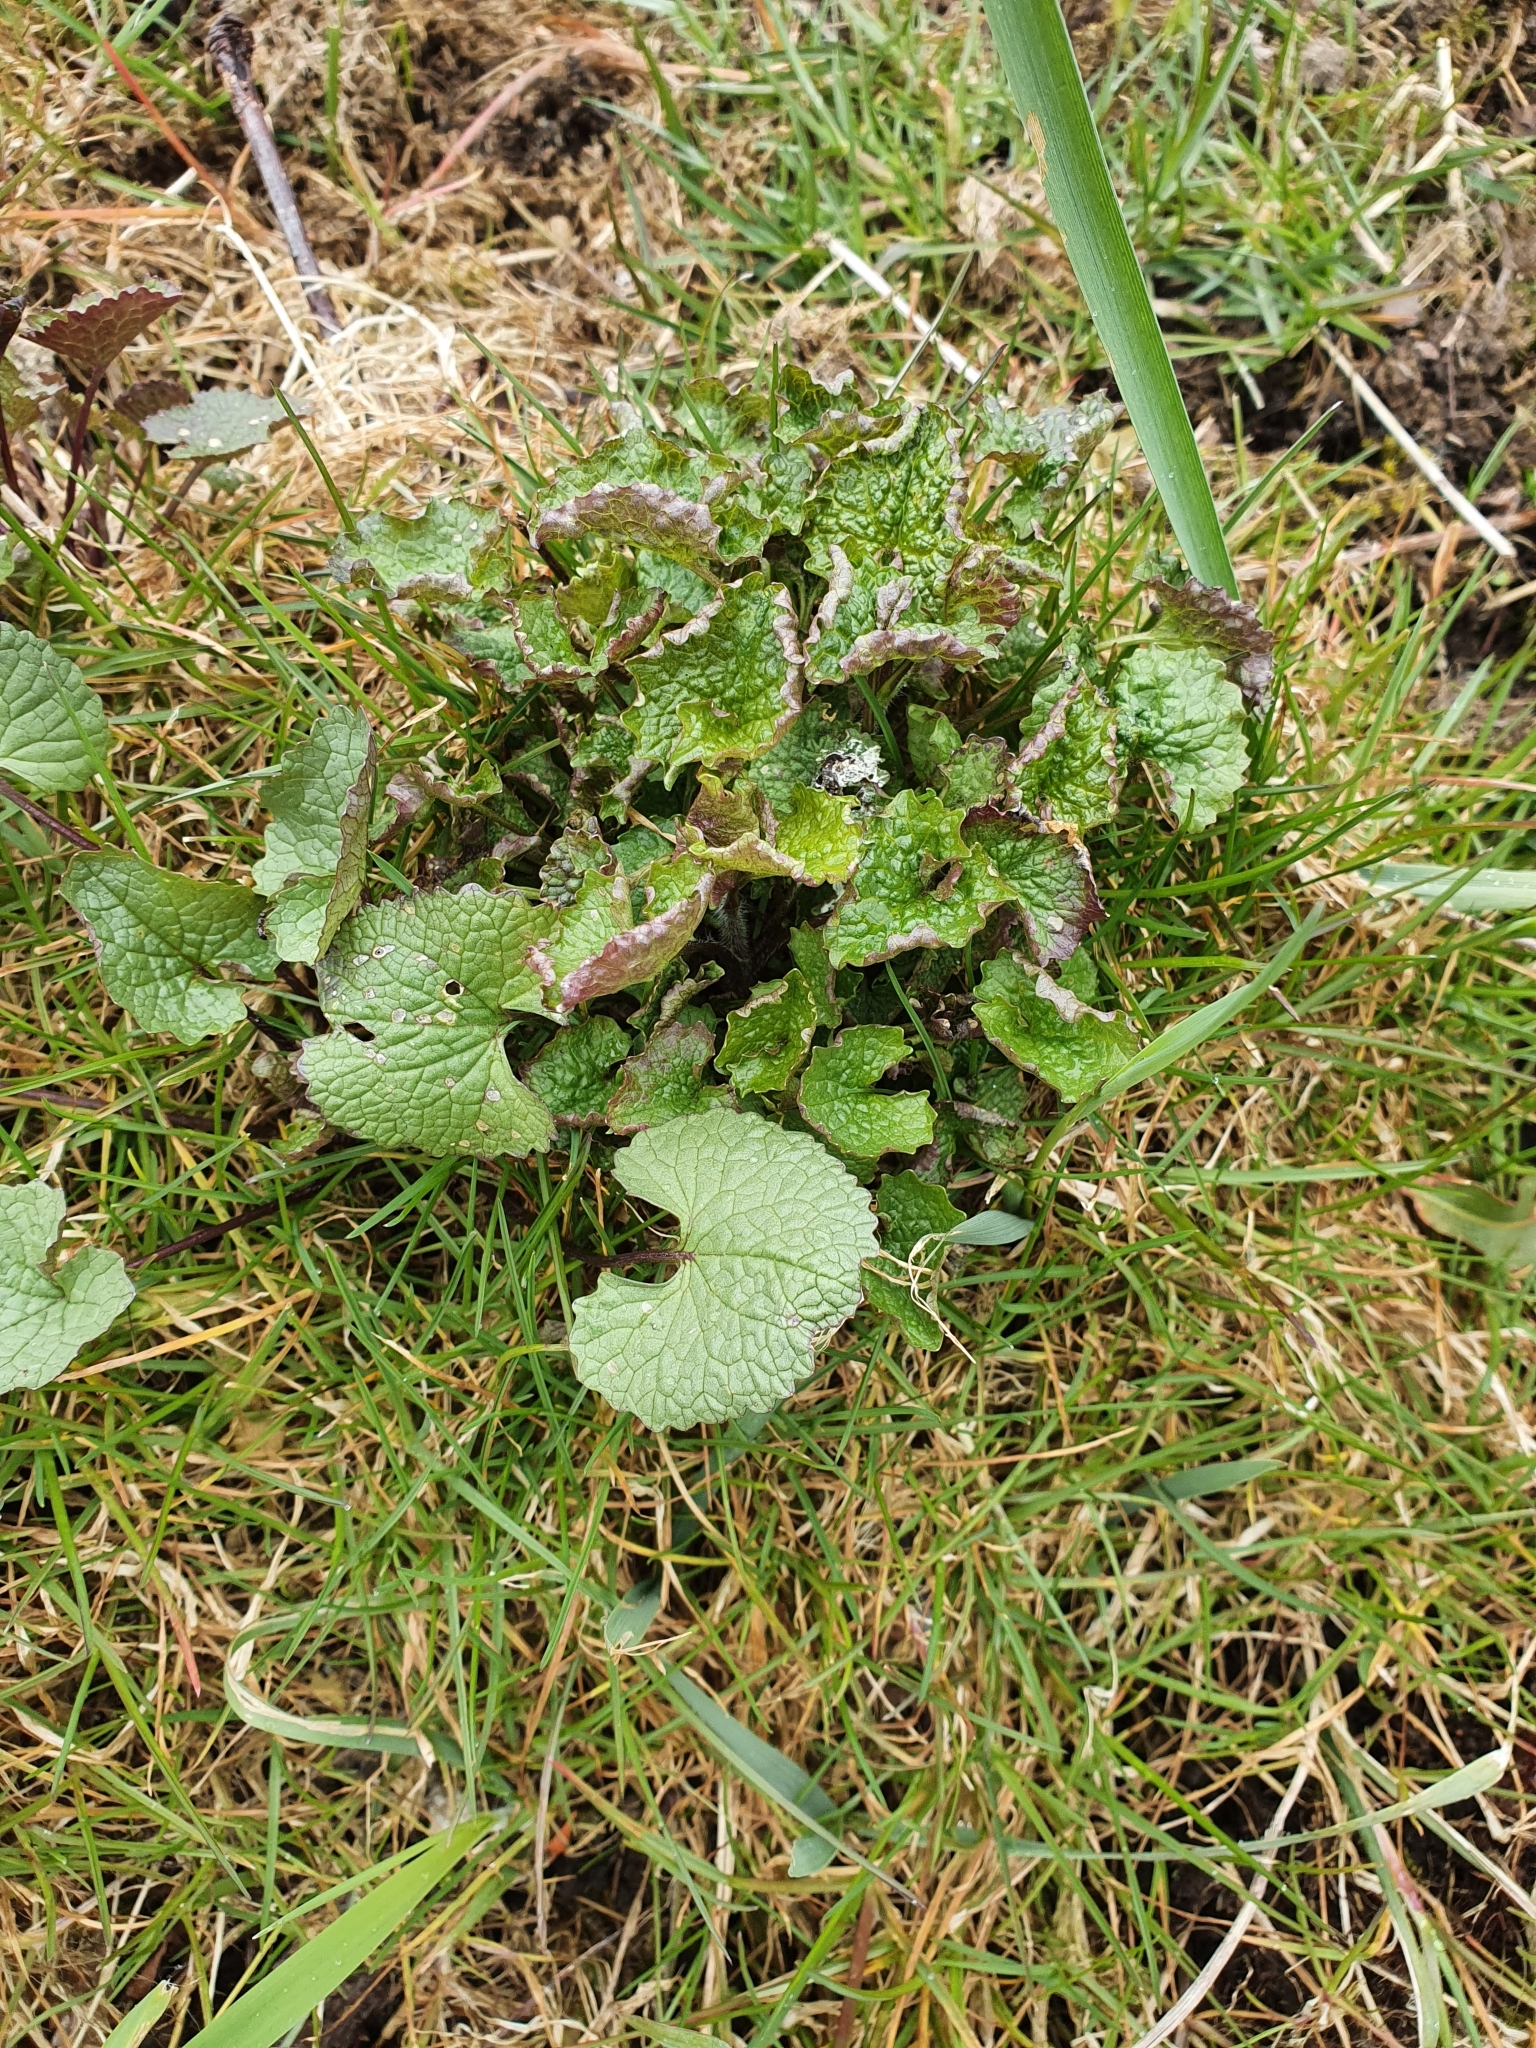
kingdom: Plantae
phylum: Tracheophyta
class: Magnoliopsida
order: Brassicales
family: Brassicaceae
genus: Alliaria
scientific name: Alliaria petiolata
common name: Garlic mustard
